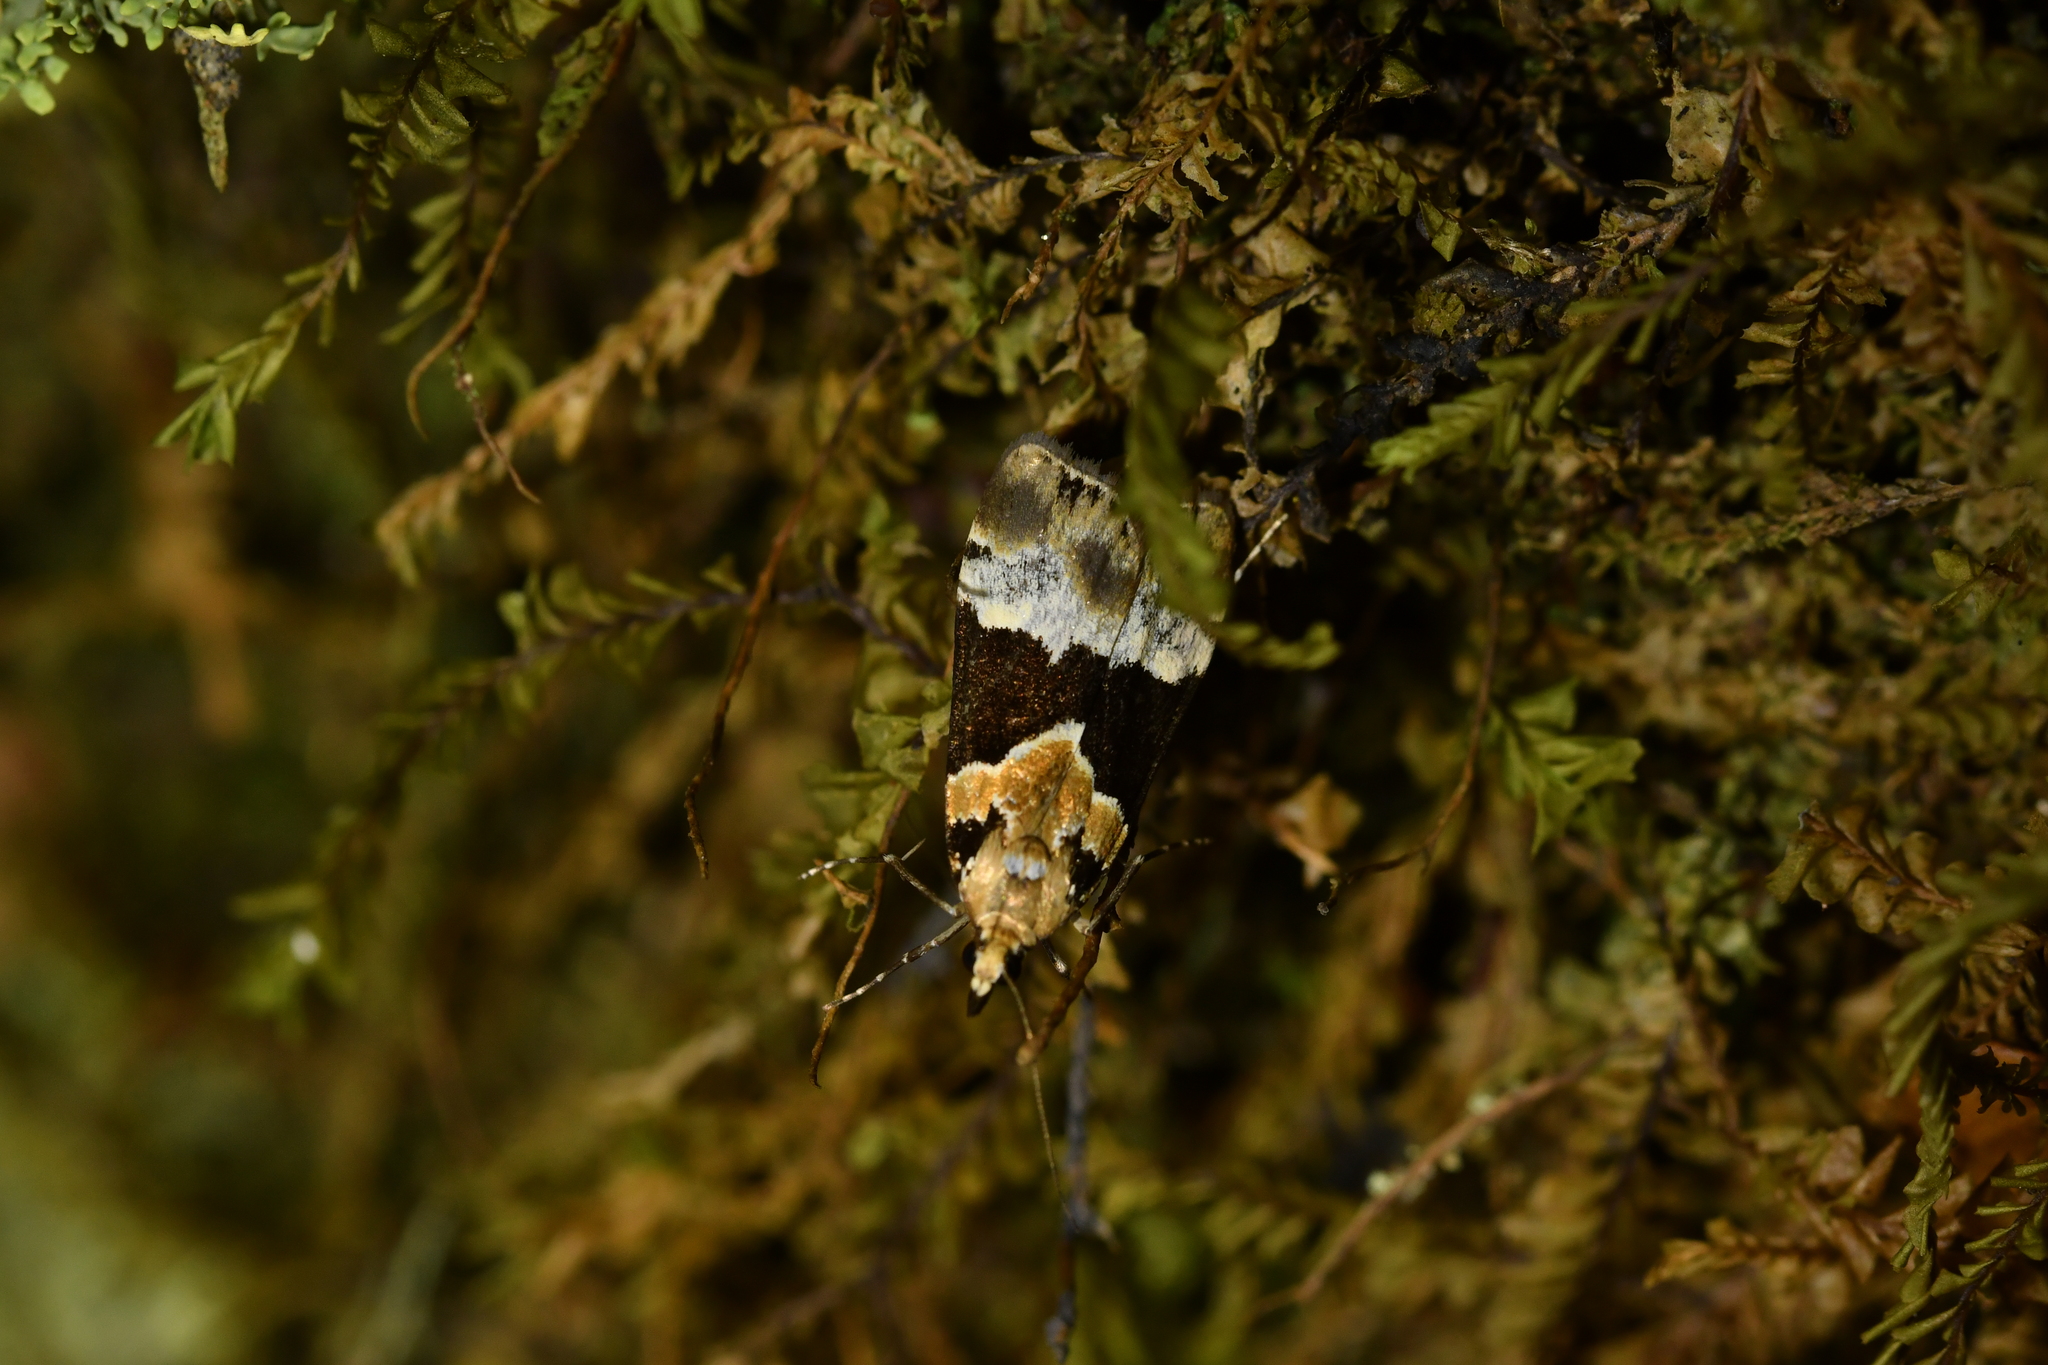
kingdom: Animalia
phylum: Arthropoda
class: Insecta
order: Lepidoptera
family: Crambidae
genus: Eudonia
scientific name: Eudonia aspidota
